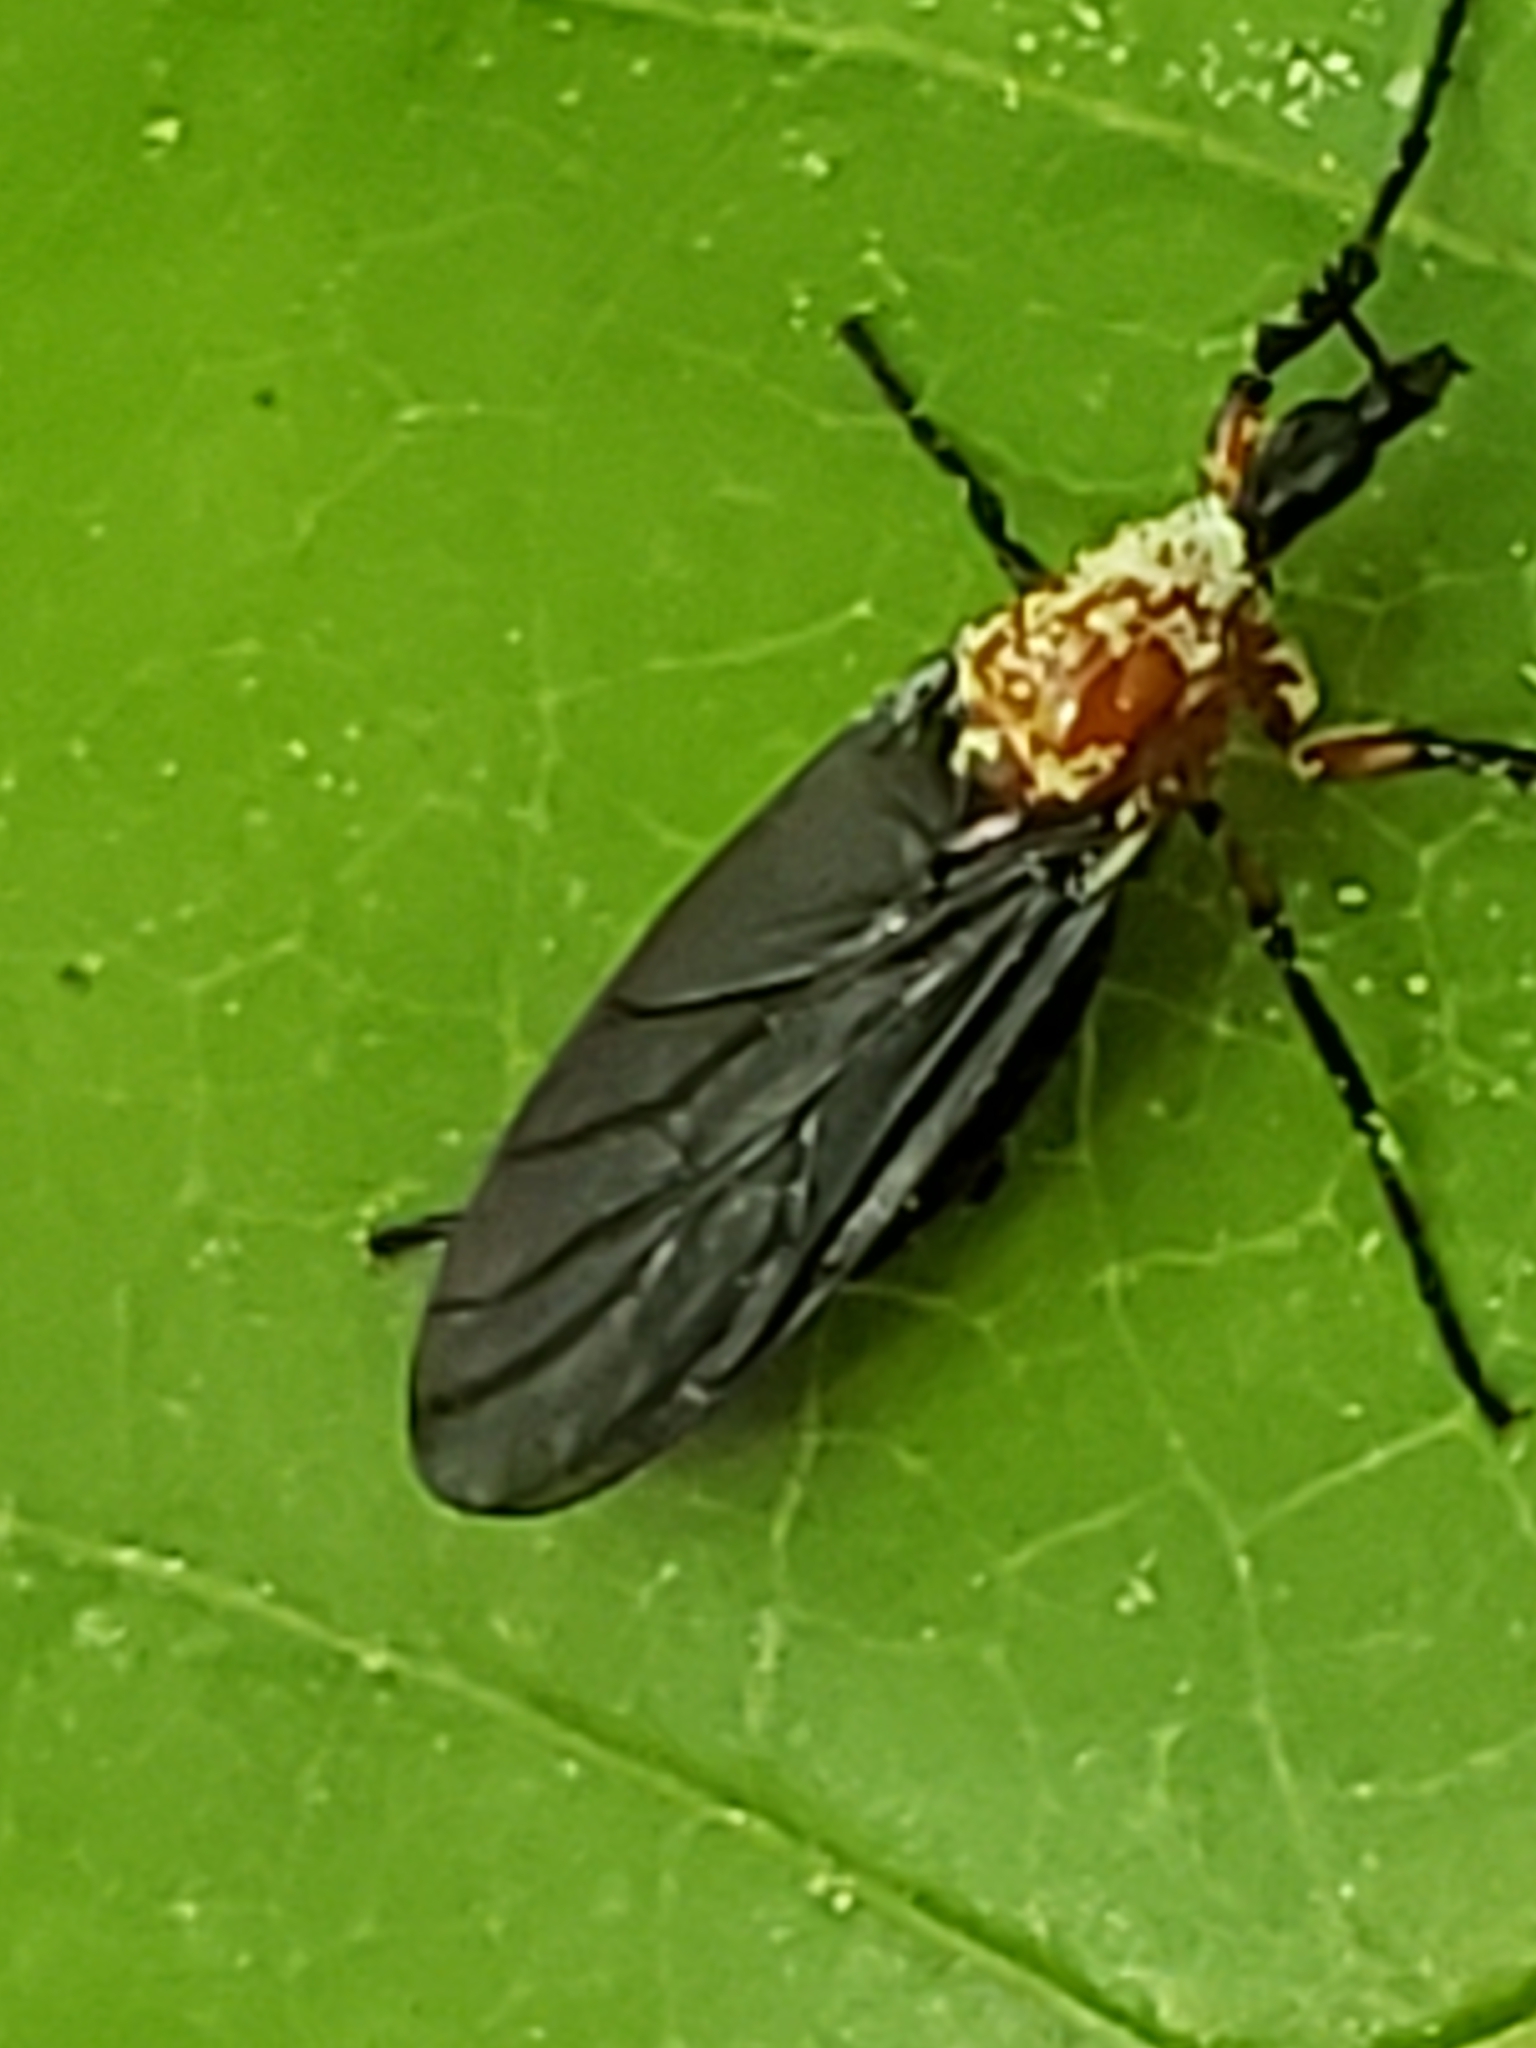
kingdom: Animalia
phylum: Arthropoda
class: Insecta
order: Diptera
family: Bibionidae
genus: Dilophus
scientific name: Dilophus spinipes
